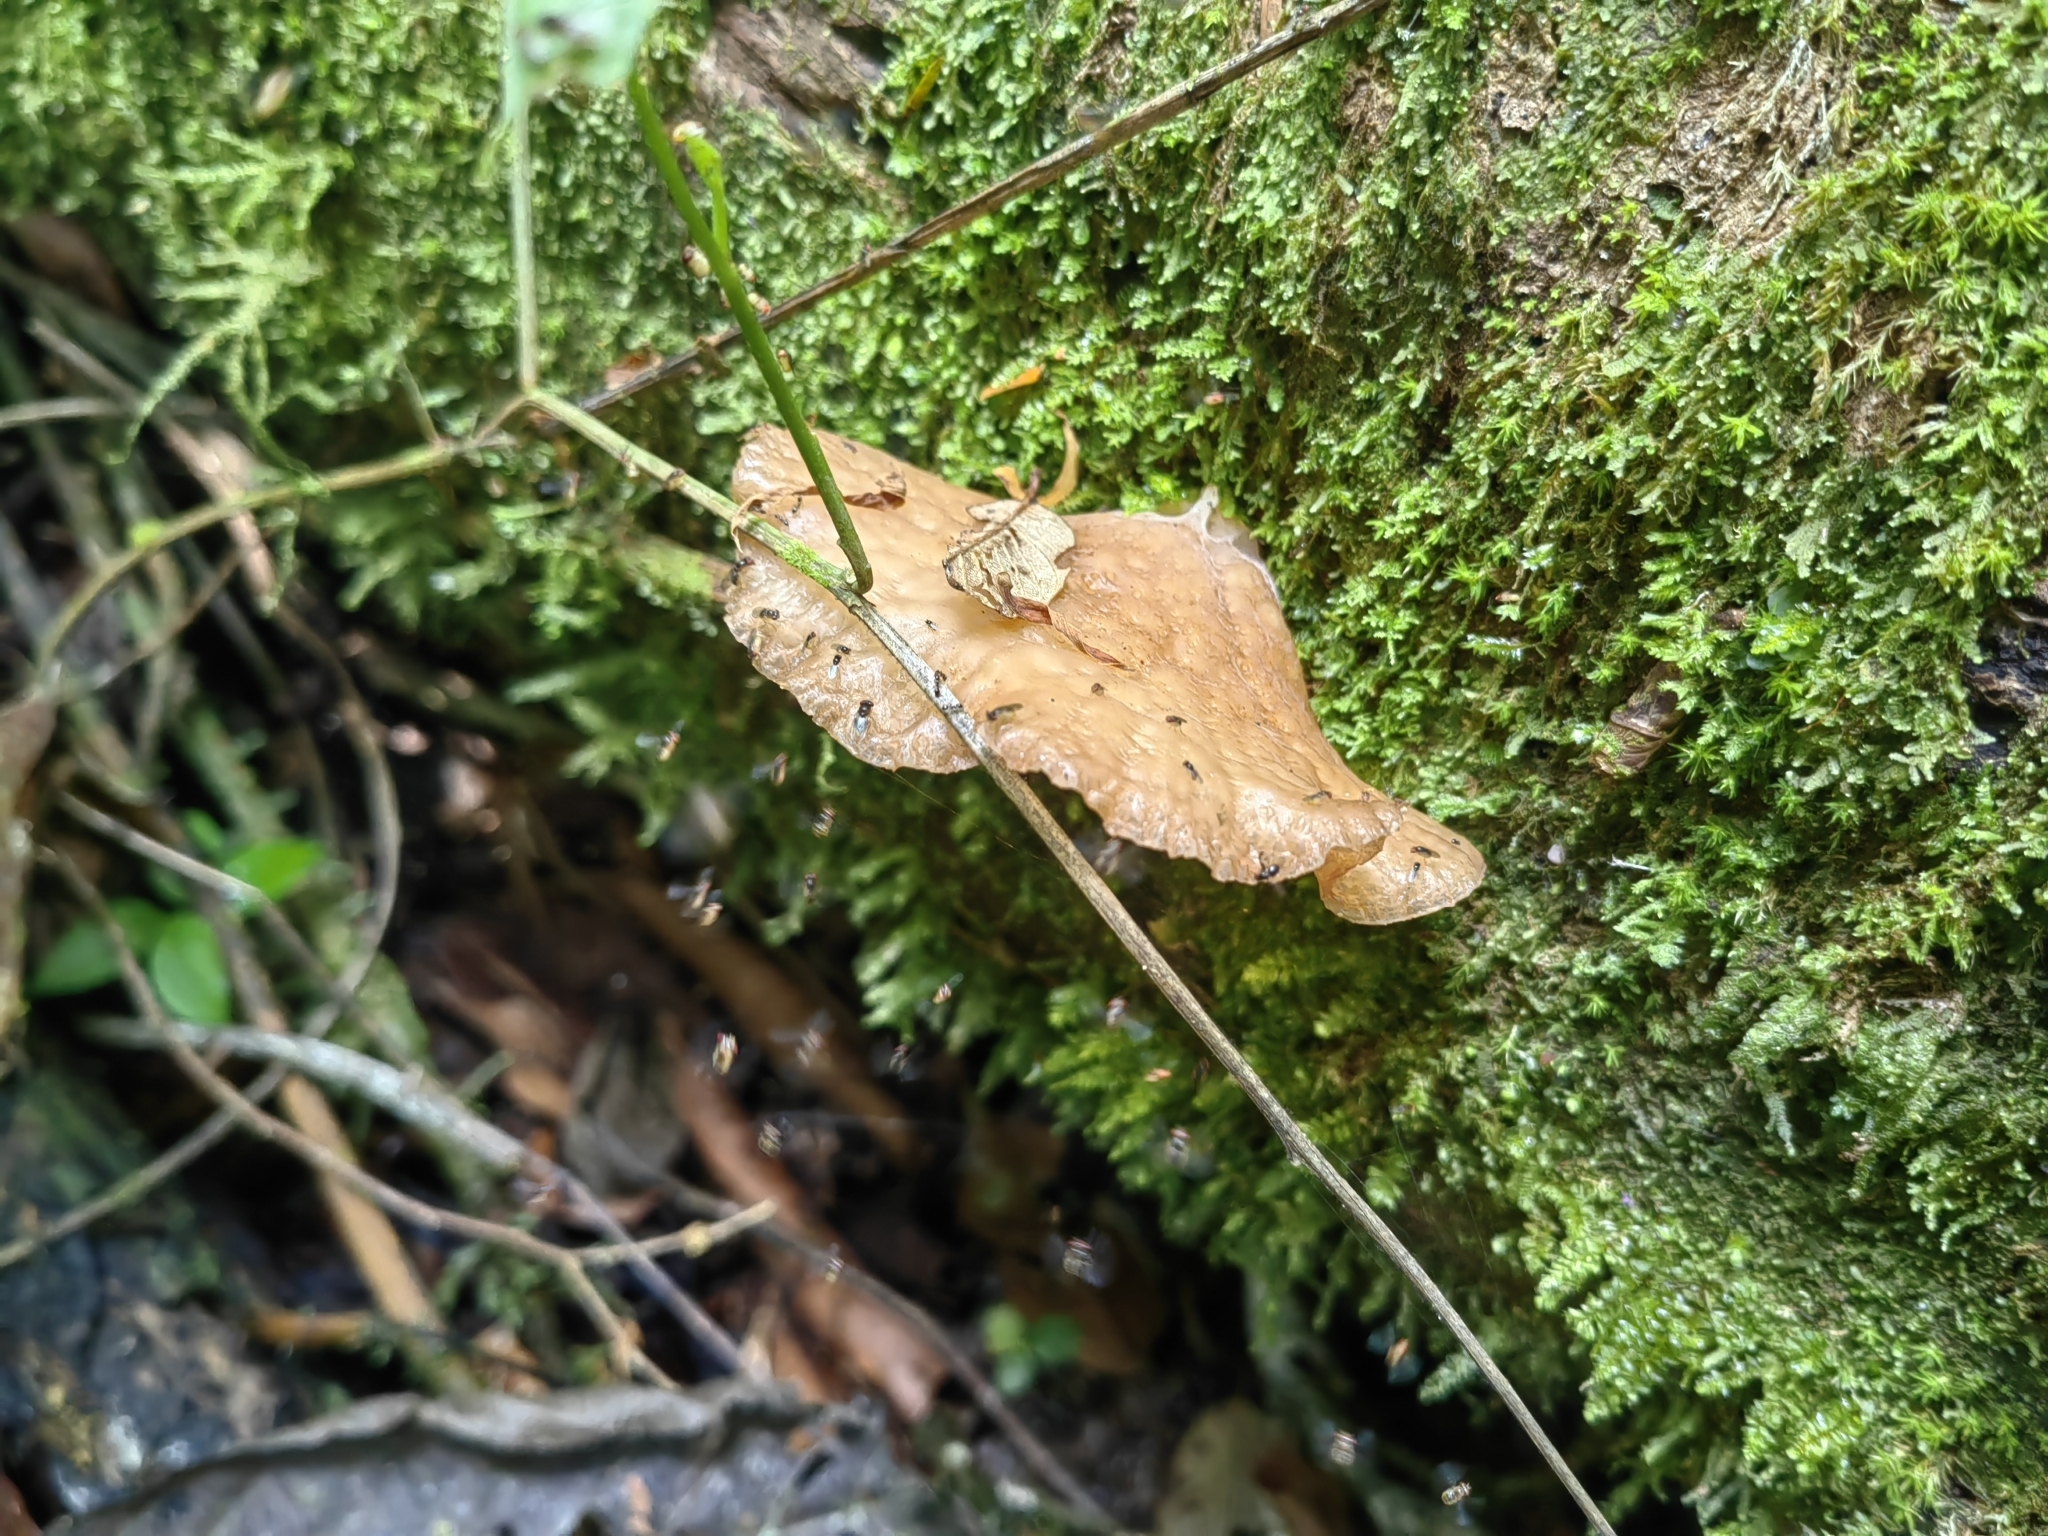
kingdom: Fungi
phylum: Basidiomycota
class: Agaricomycetes
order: Auriculariales
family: Auriculariaceae
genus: Auricularia
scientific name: Auricularia delicata
